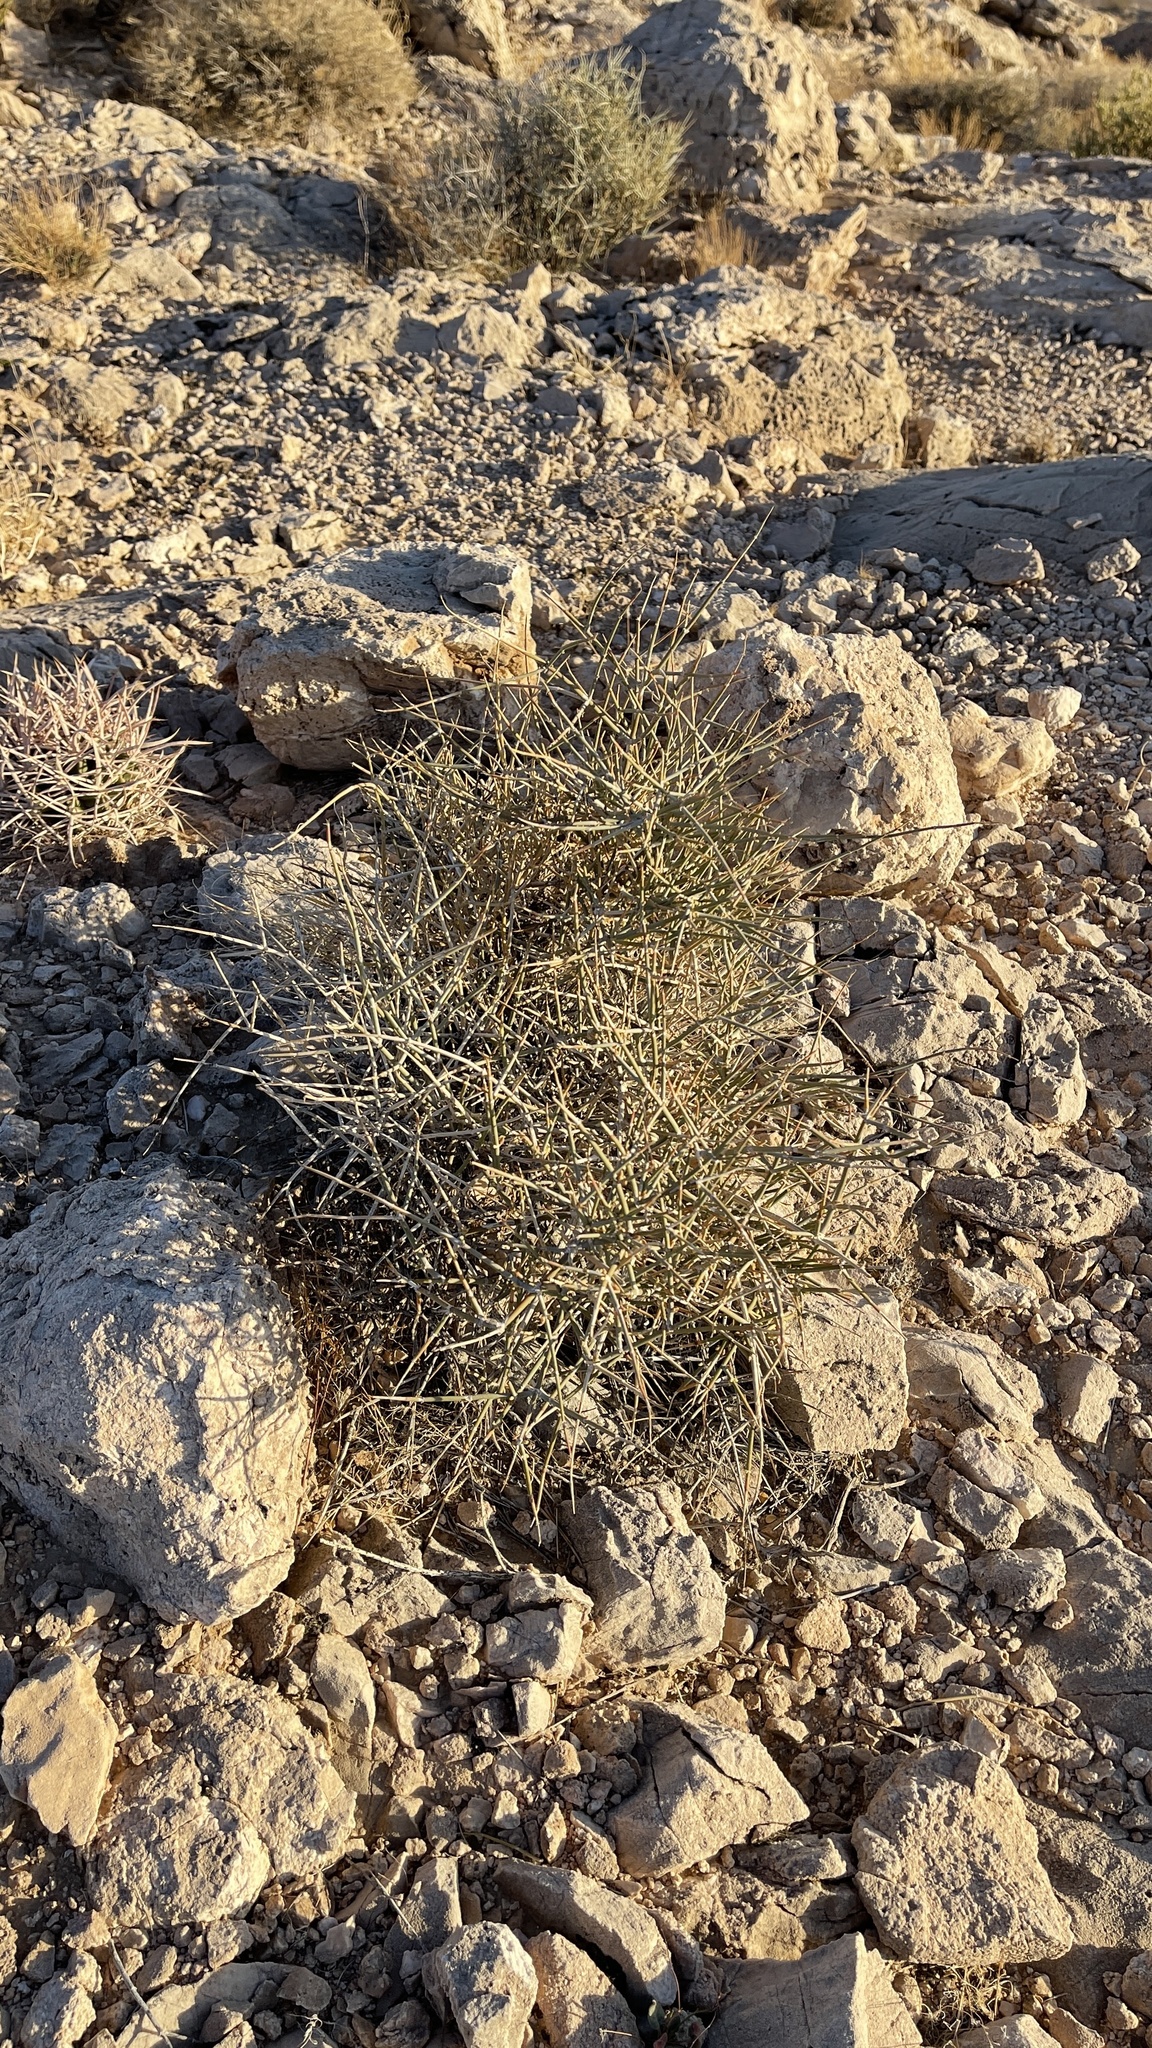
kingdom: Plantae
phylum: Tracheophyta
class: Gnetopsida
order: Ephedrales
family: Ephedraceae
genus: Ephedra
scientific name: Ephedra nevadensis
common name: Gray ephedra
